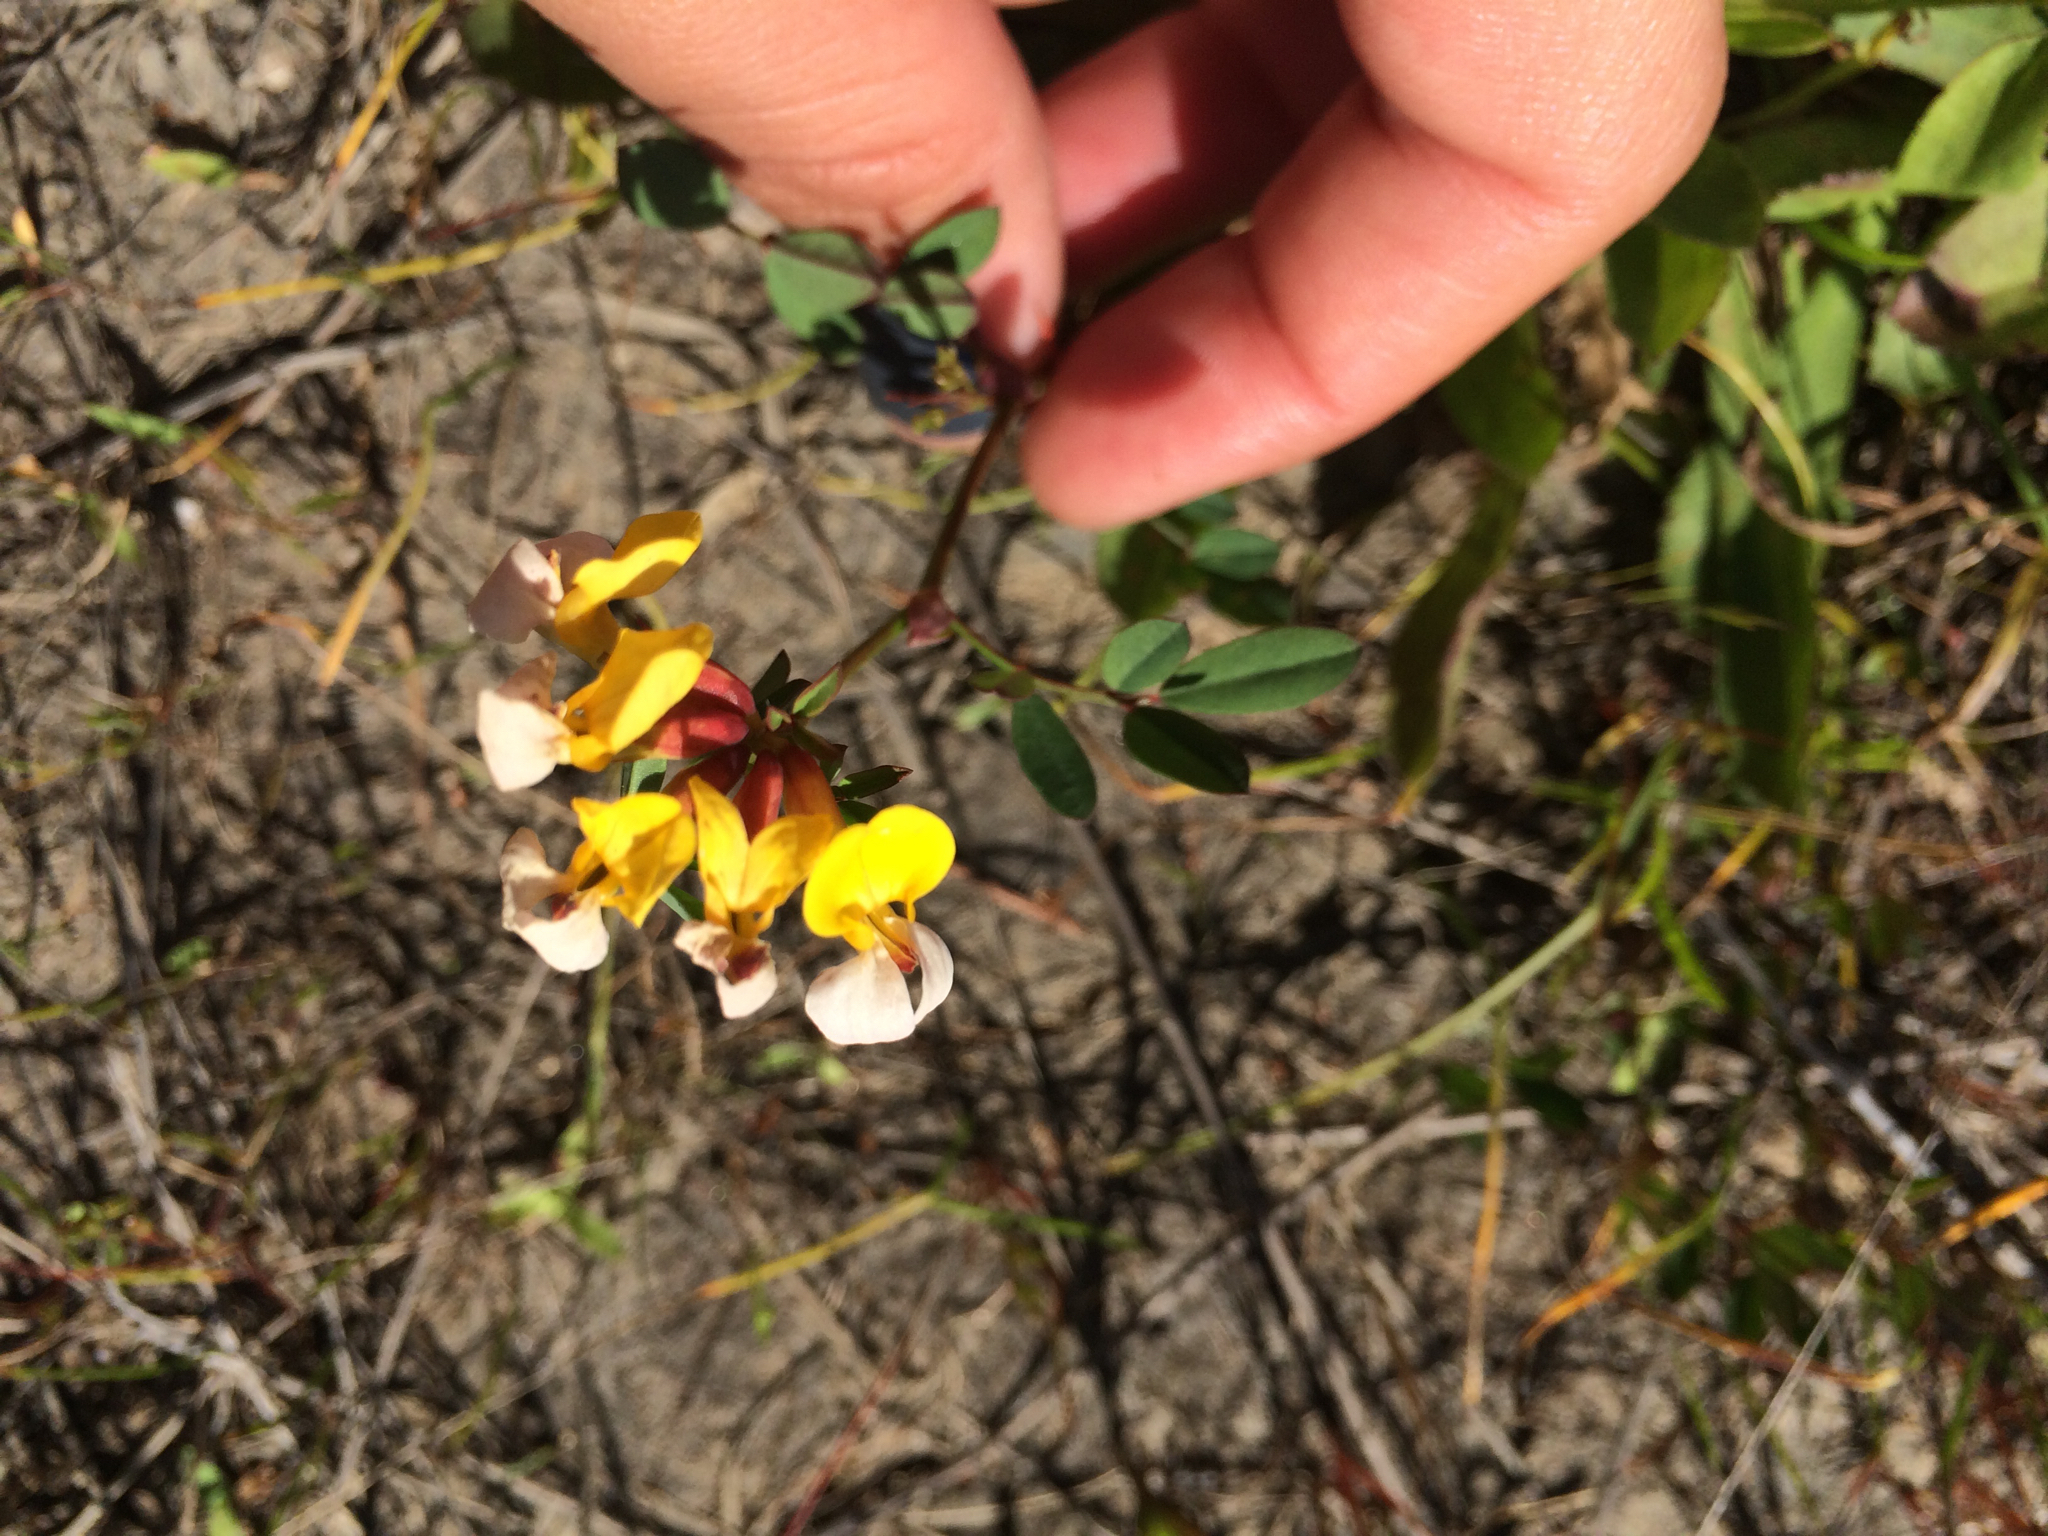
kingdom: Plantae
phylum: Tracheophyta
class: Magnoliopsida
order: Fabales
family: Fabaceae
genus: Hosackia
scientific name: Hosackia gracilis
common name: Seaside bird's-foot lotus
